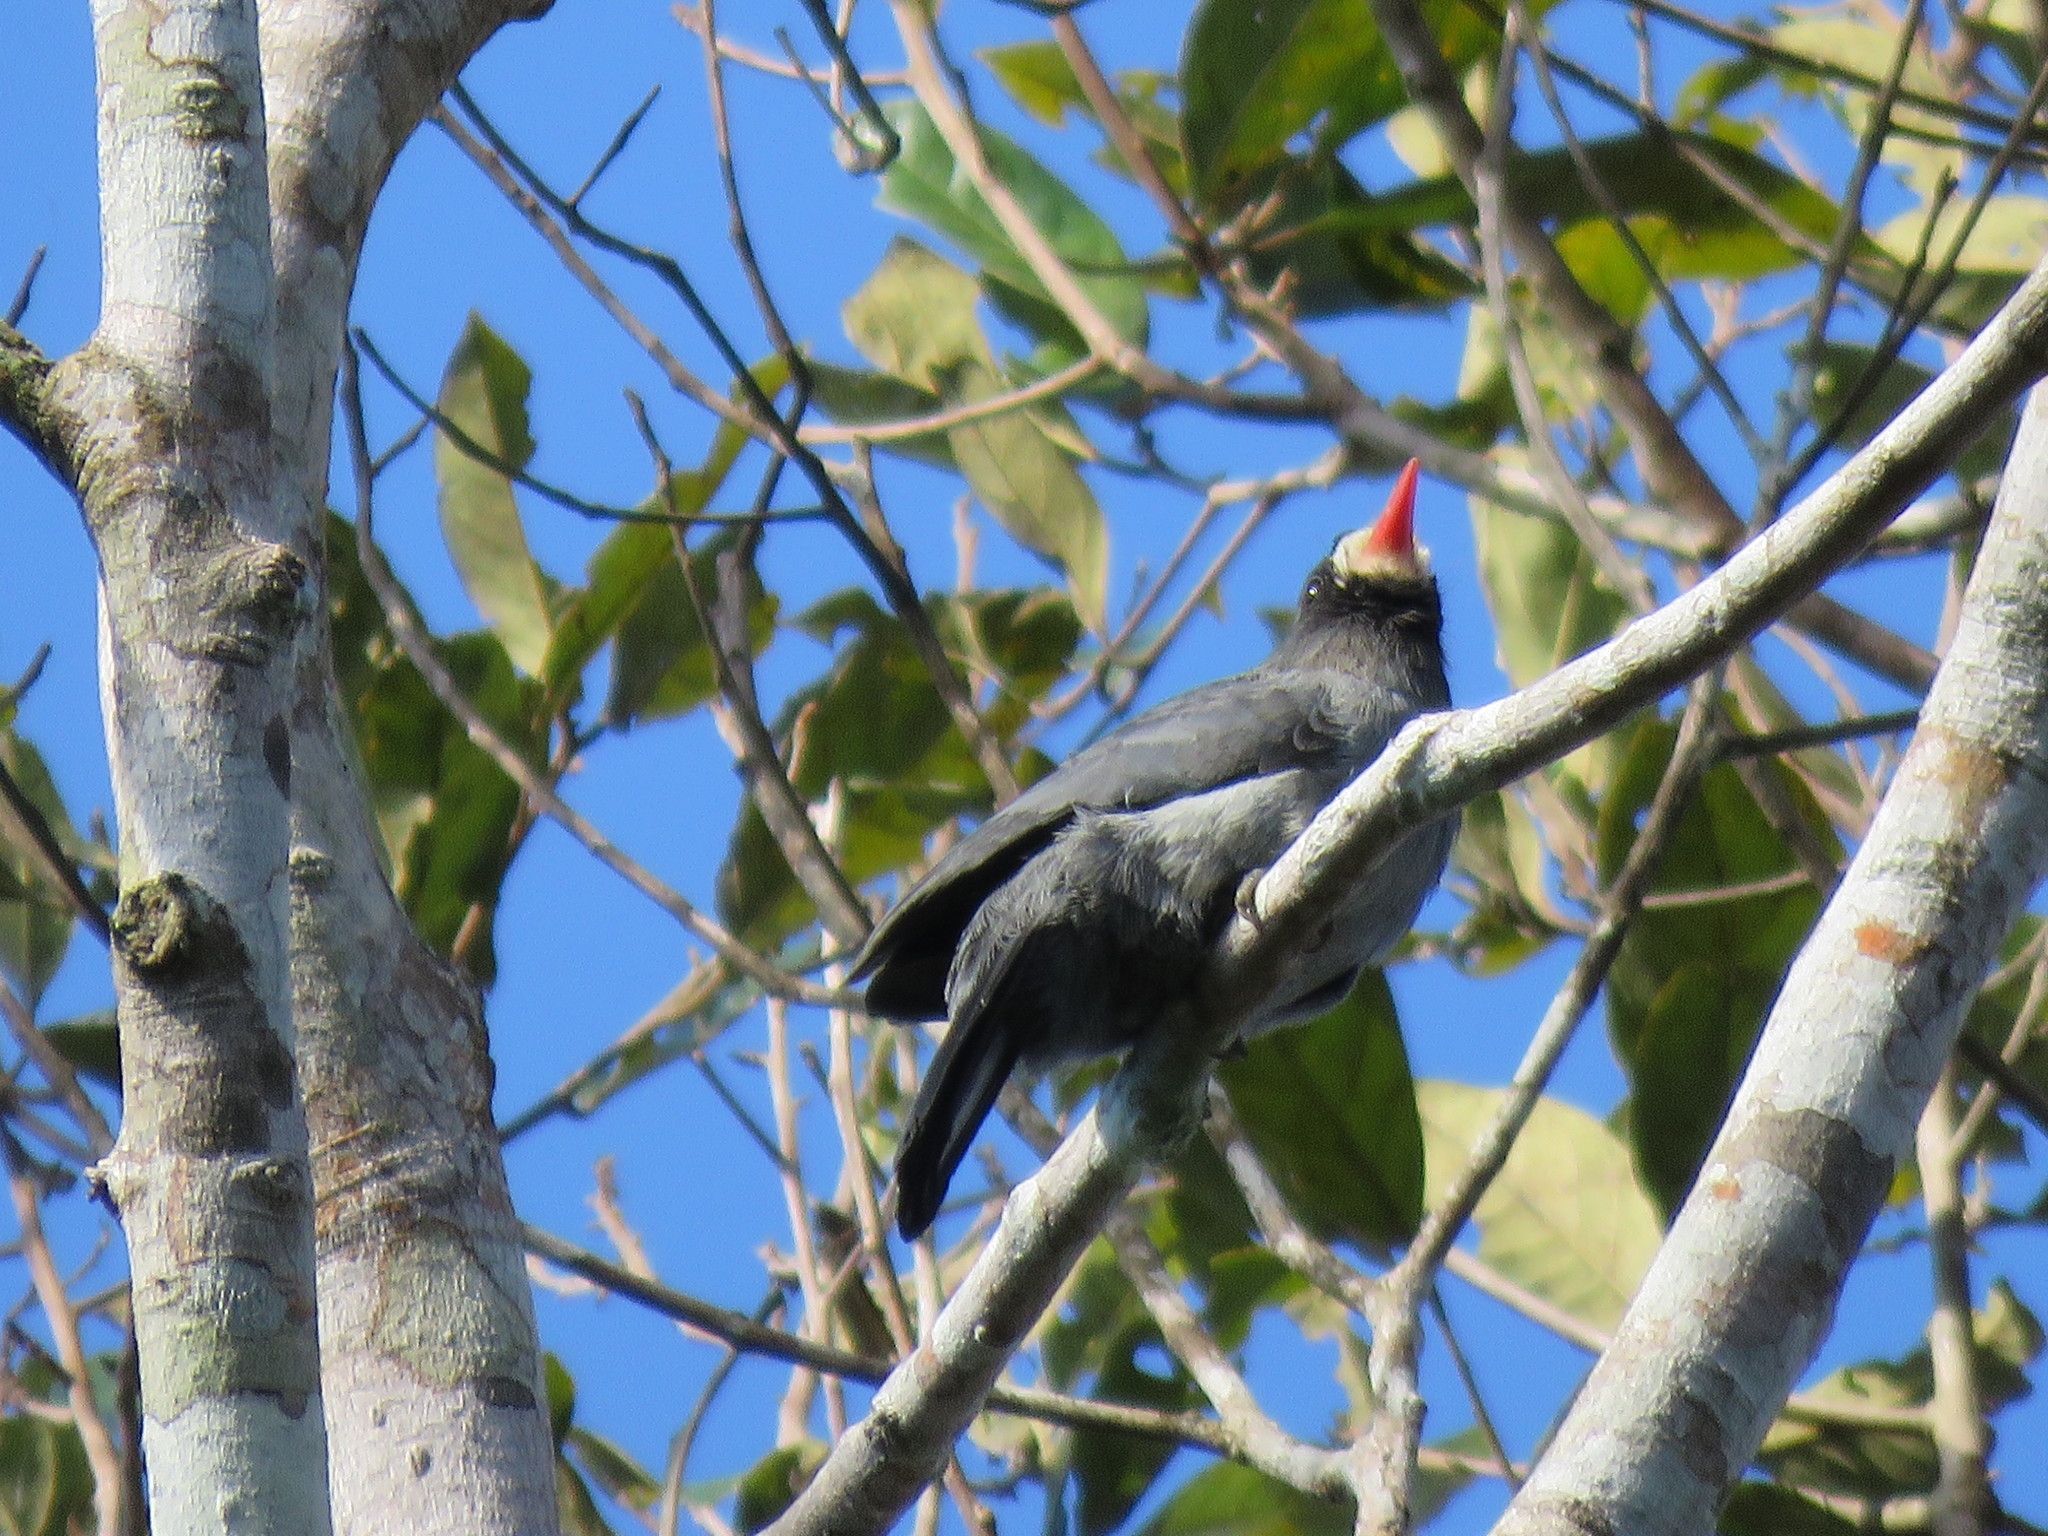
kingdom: Animalia
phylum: Chordata
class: Aves
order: Piciformes
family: Bucconidae
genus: Monasa
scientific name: Monasa morphoeus
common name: White-fronted nunbird
